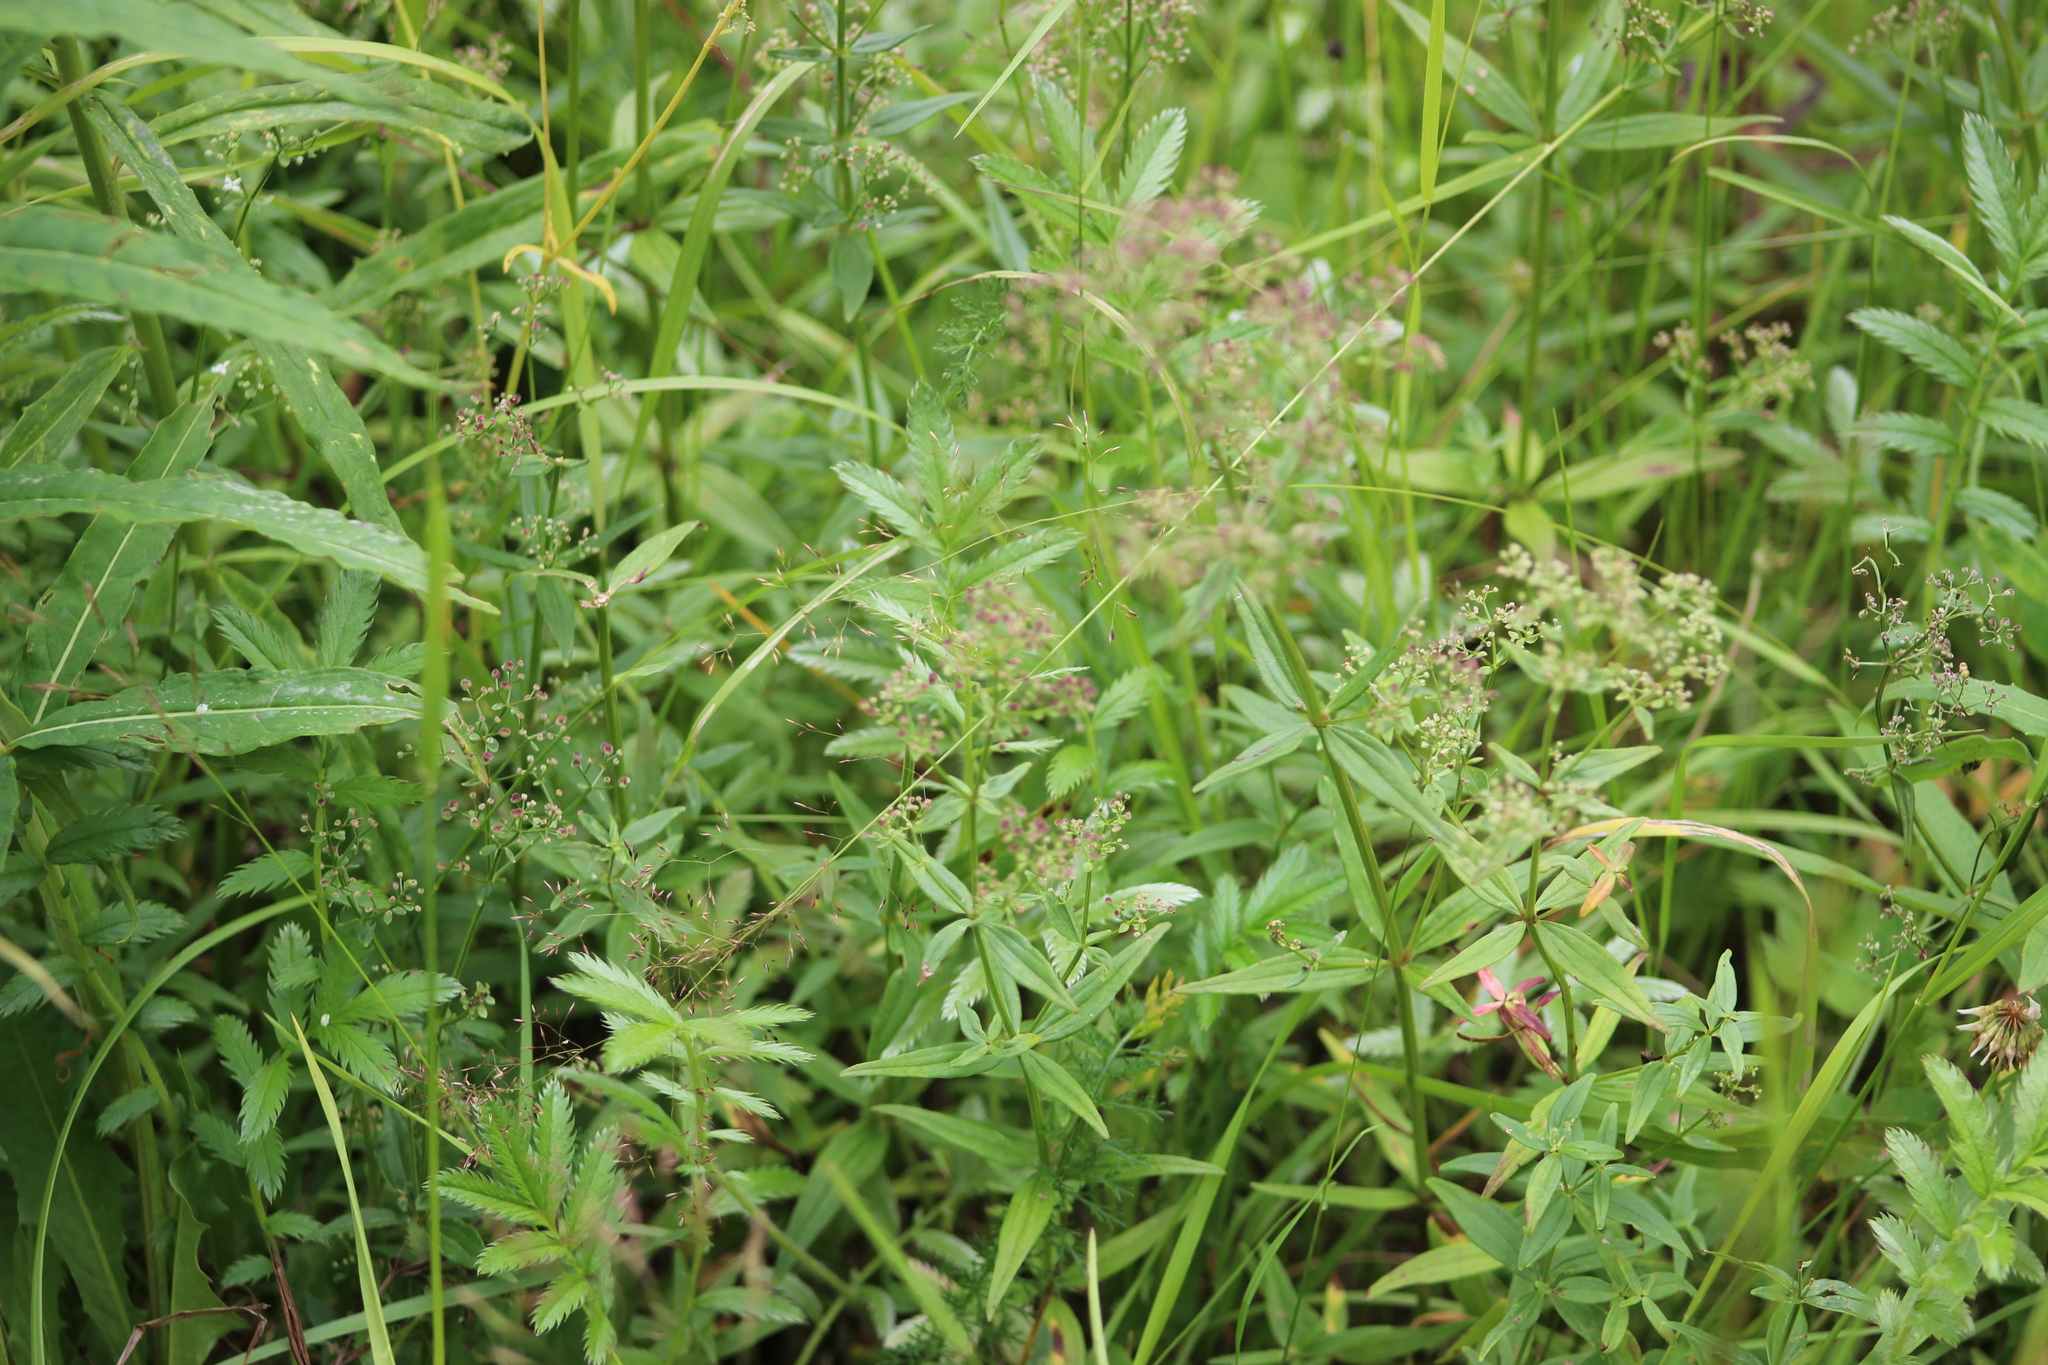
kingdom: Plantae
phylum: Tracheophyta
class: Magnoliopsida
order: Gentianales
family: Rubiaceae
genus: Galium
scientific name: Galium boreale
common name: Northern bedstraw
